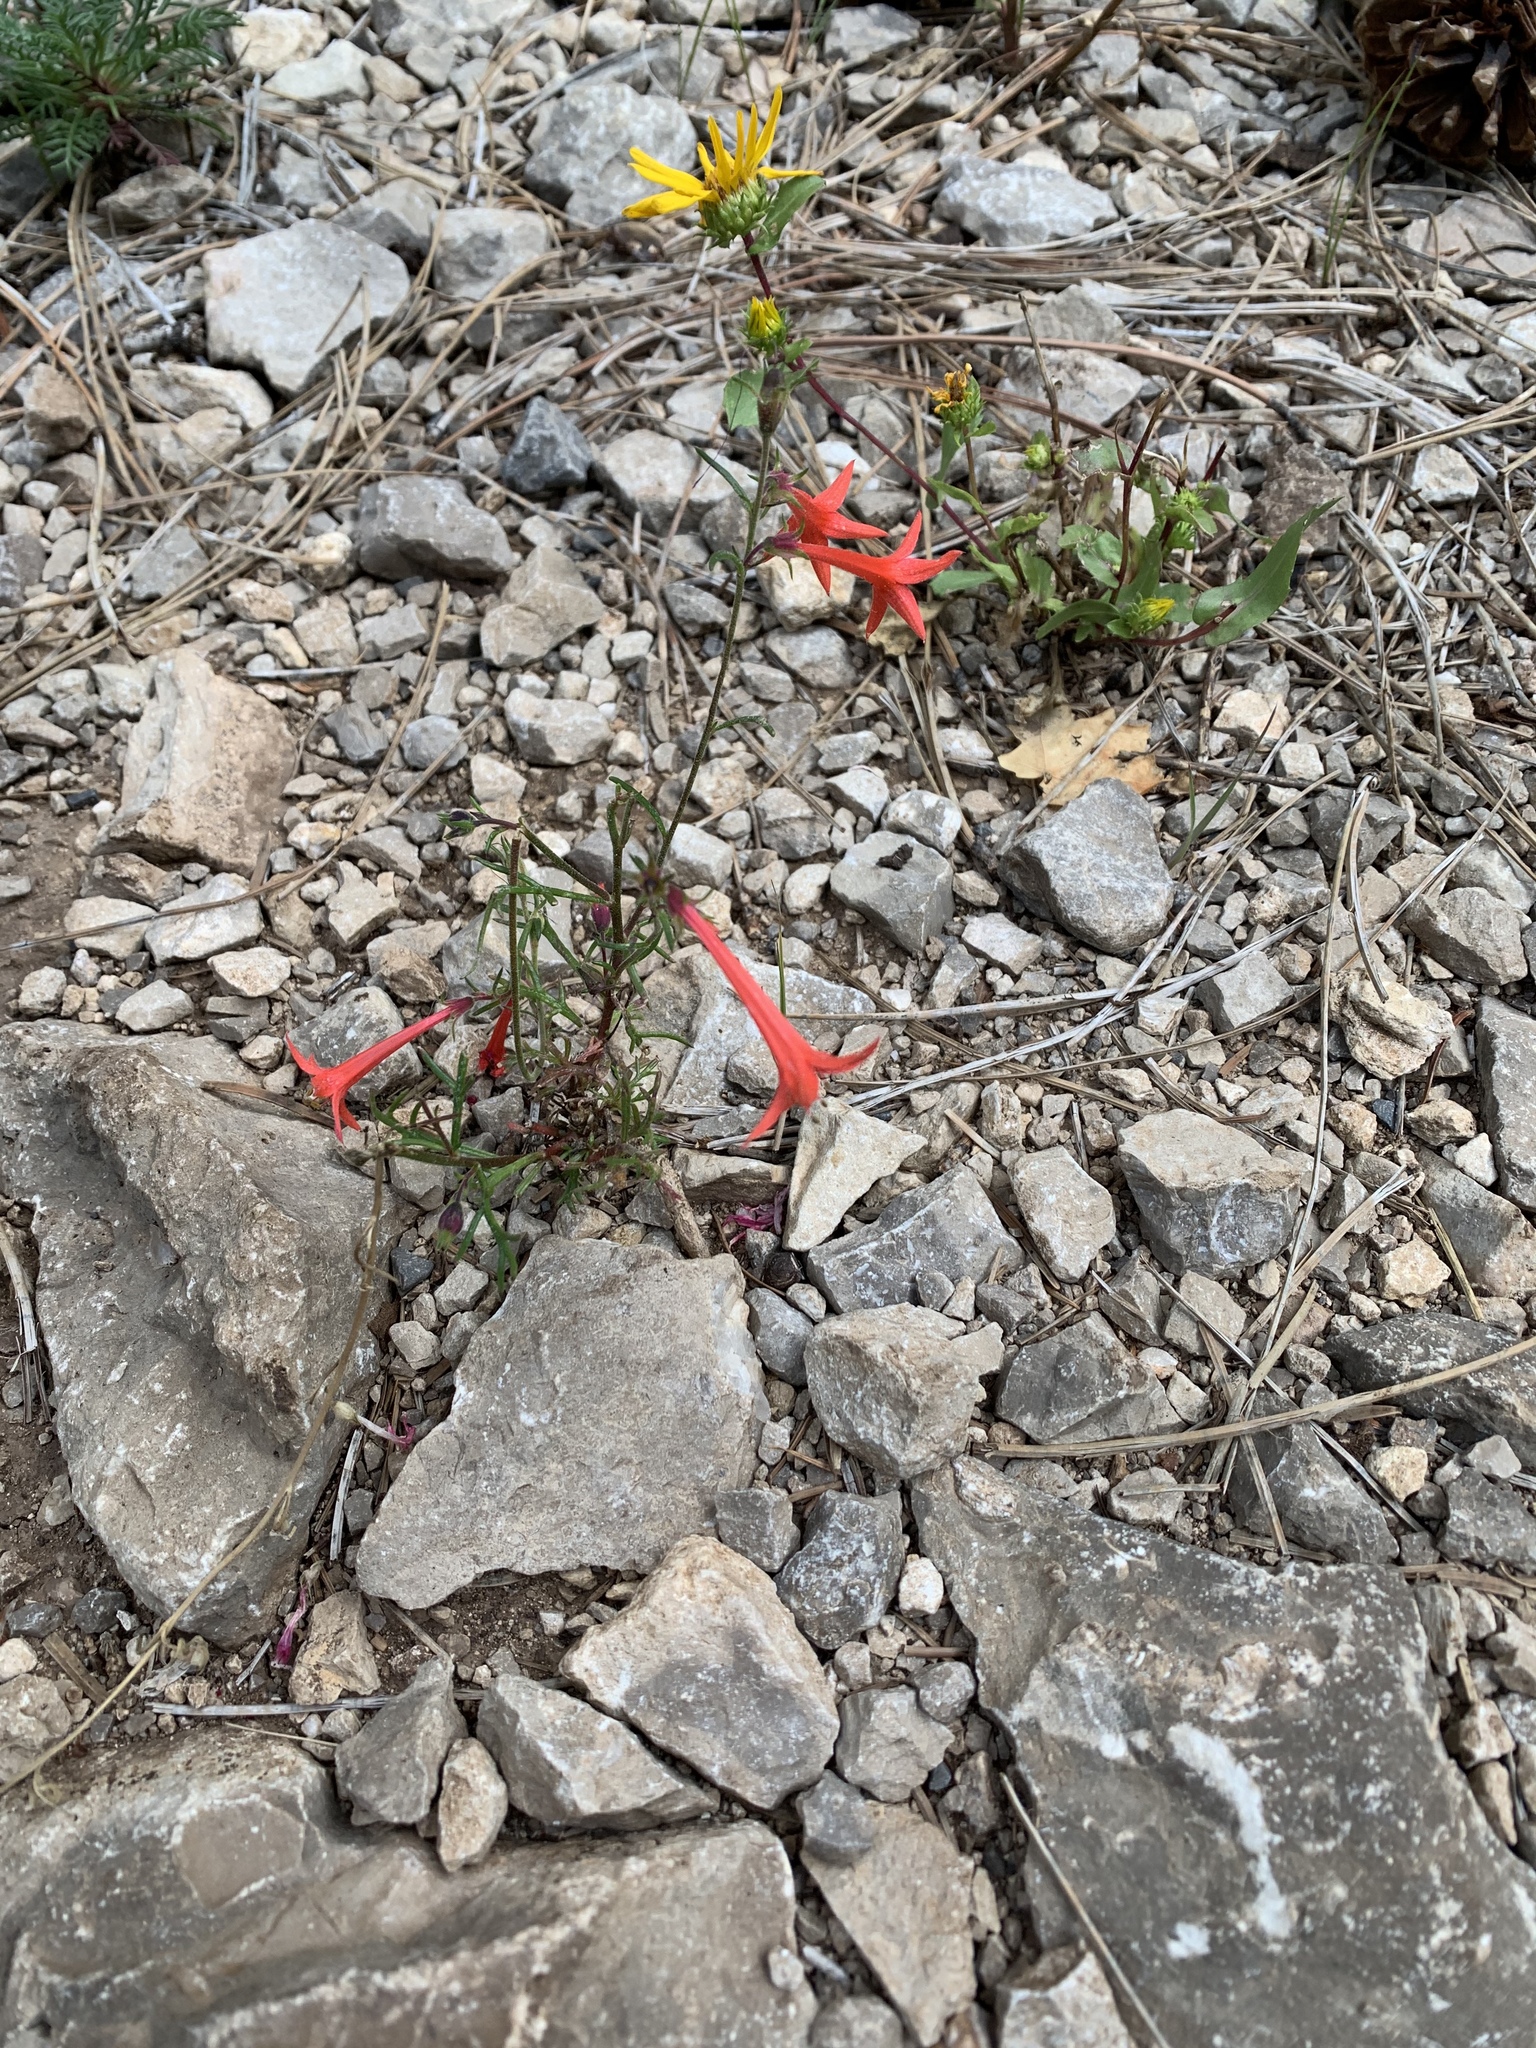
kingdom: Plantae
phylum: Tracheophyta
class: Magnoliopsida
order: Ericales
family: Polemoniaceae
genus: Ipomopsis
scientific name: Ipomopsis aggregata
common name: Scarlet gilia
